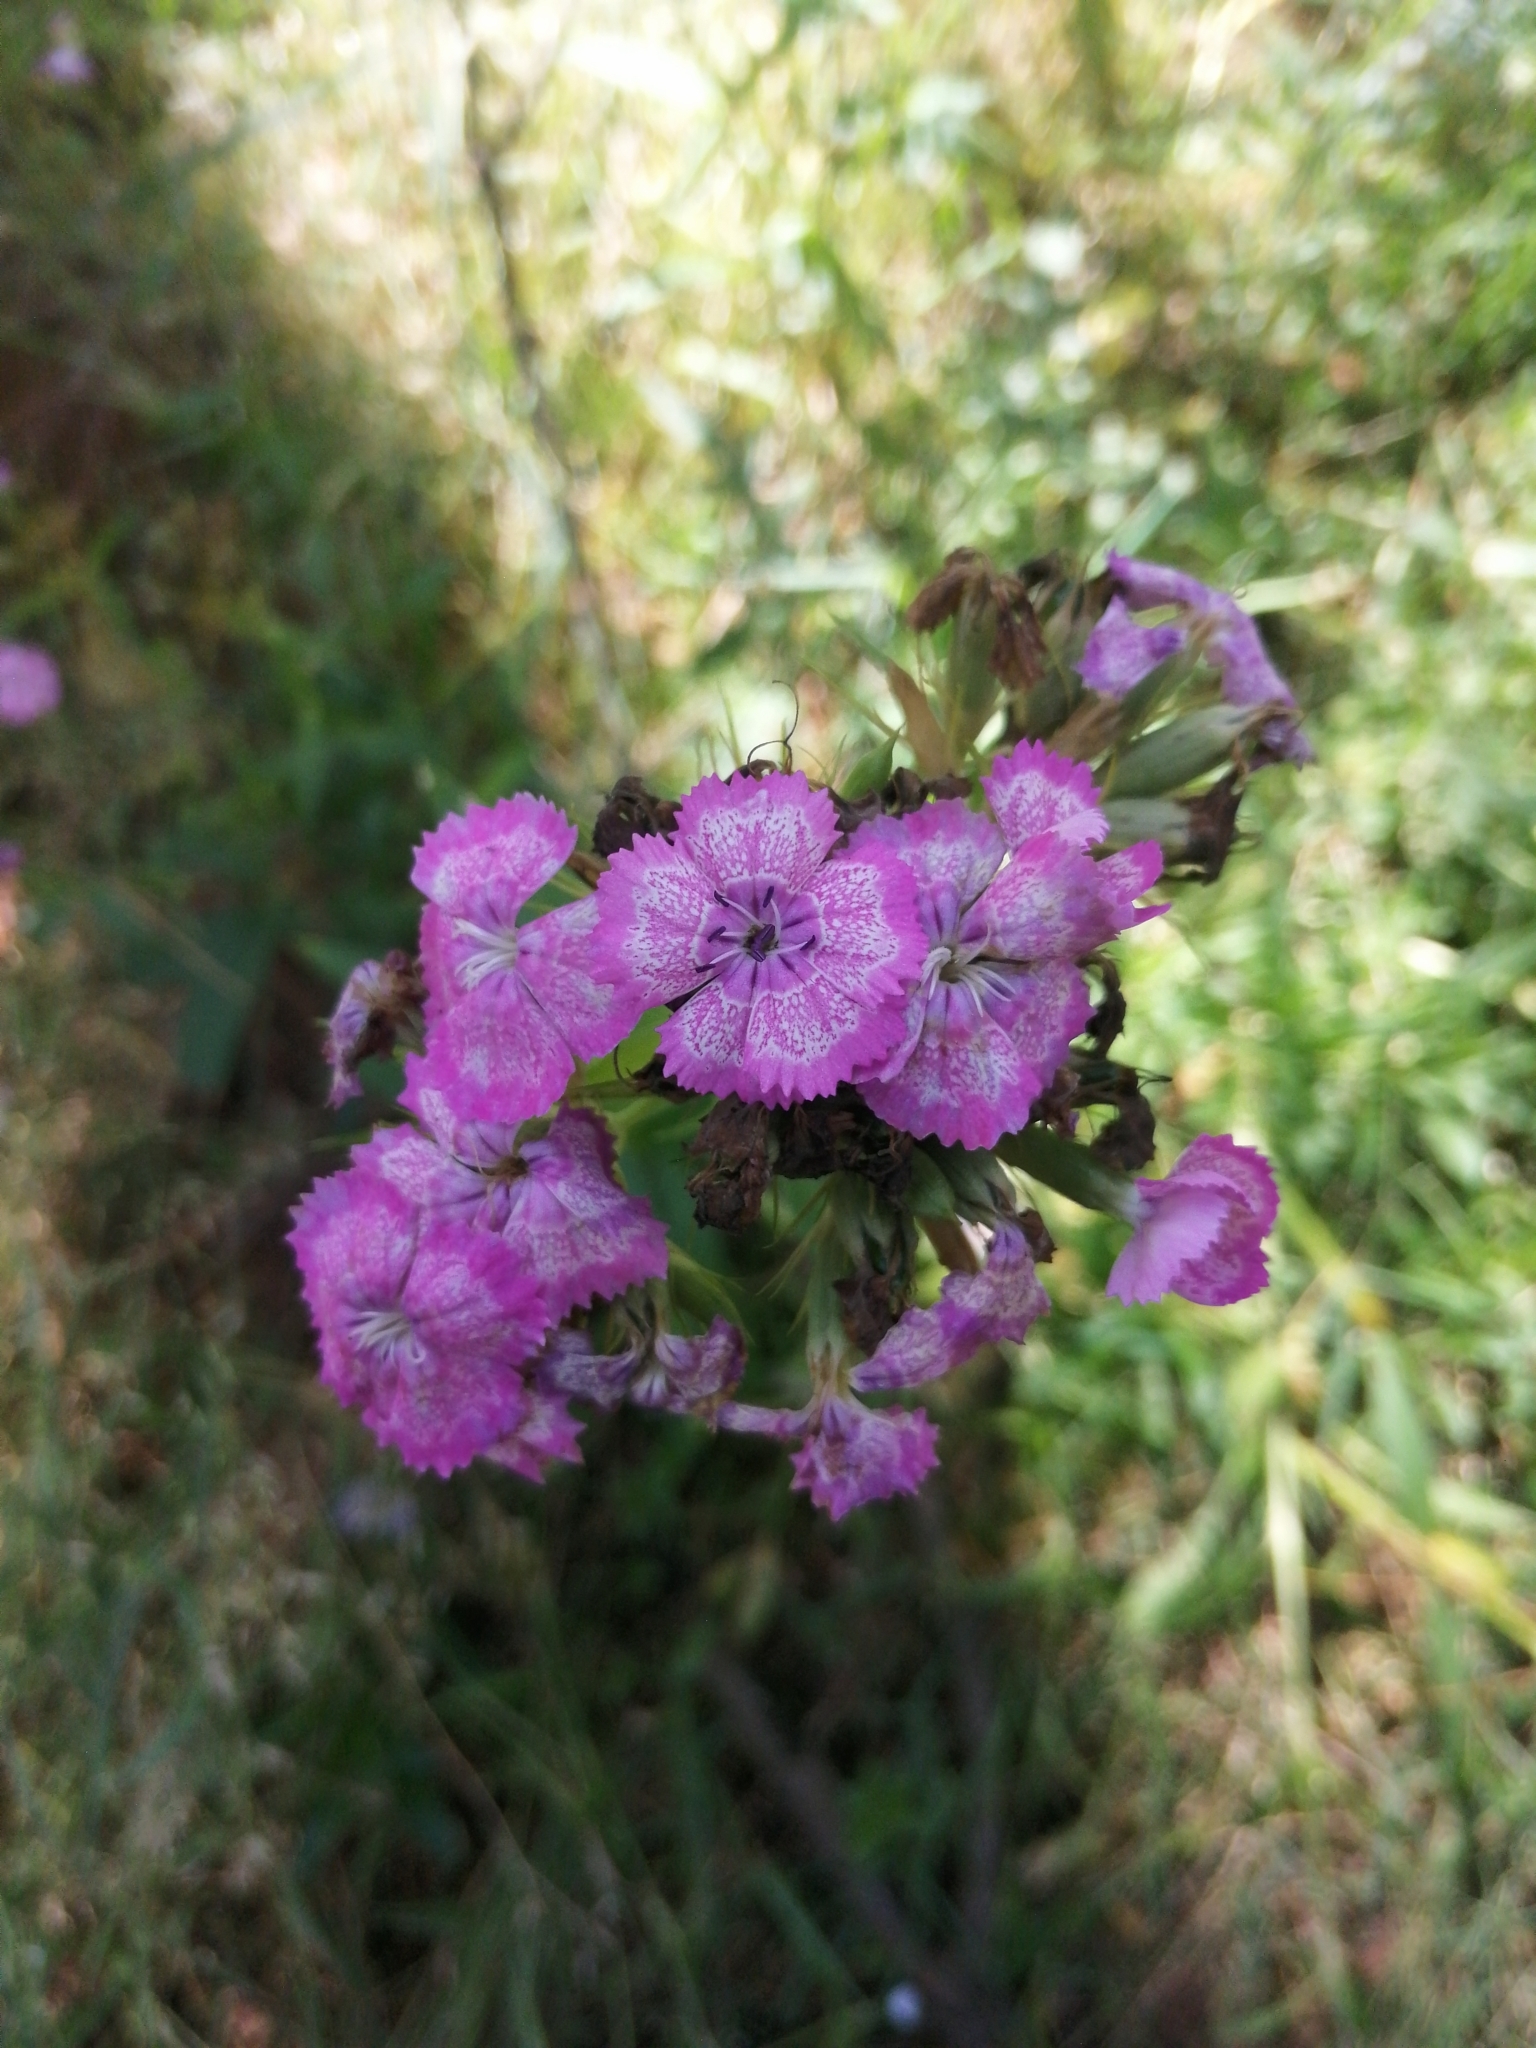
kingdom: Plantae
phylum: Tracheophyta
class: Magnoliopsida
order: Caryophyllales
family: Caryophyllaceae
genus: Dianthus
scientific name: Dianthus barbatus
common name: Sweet-william
